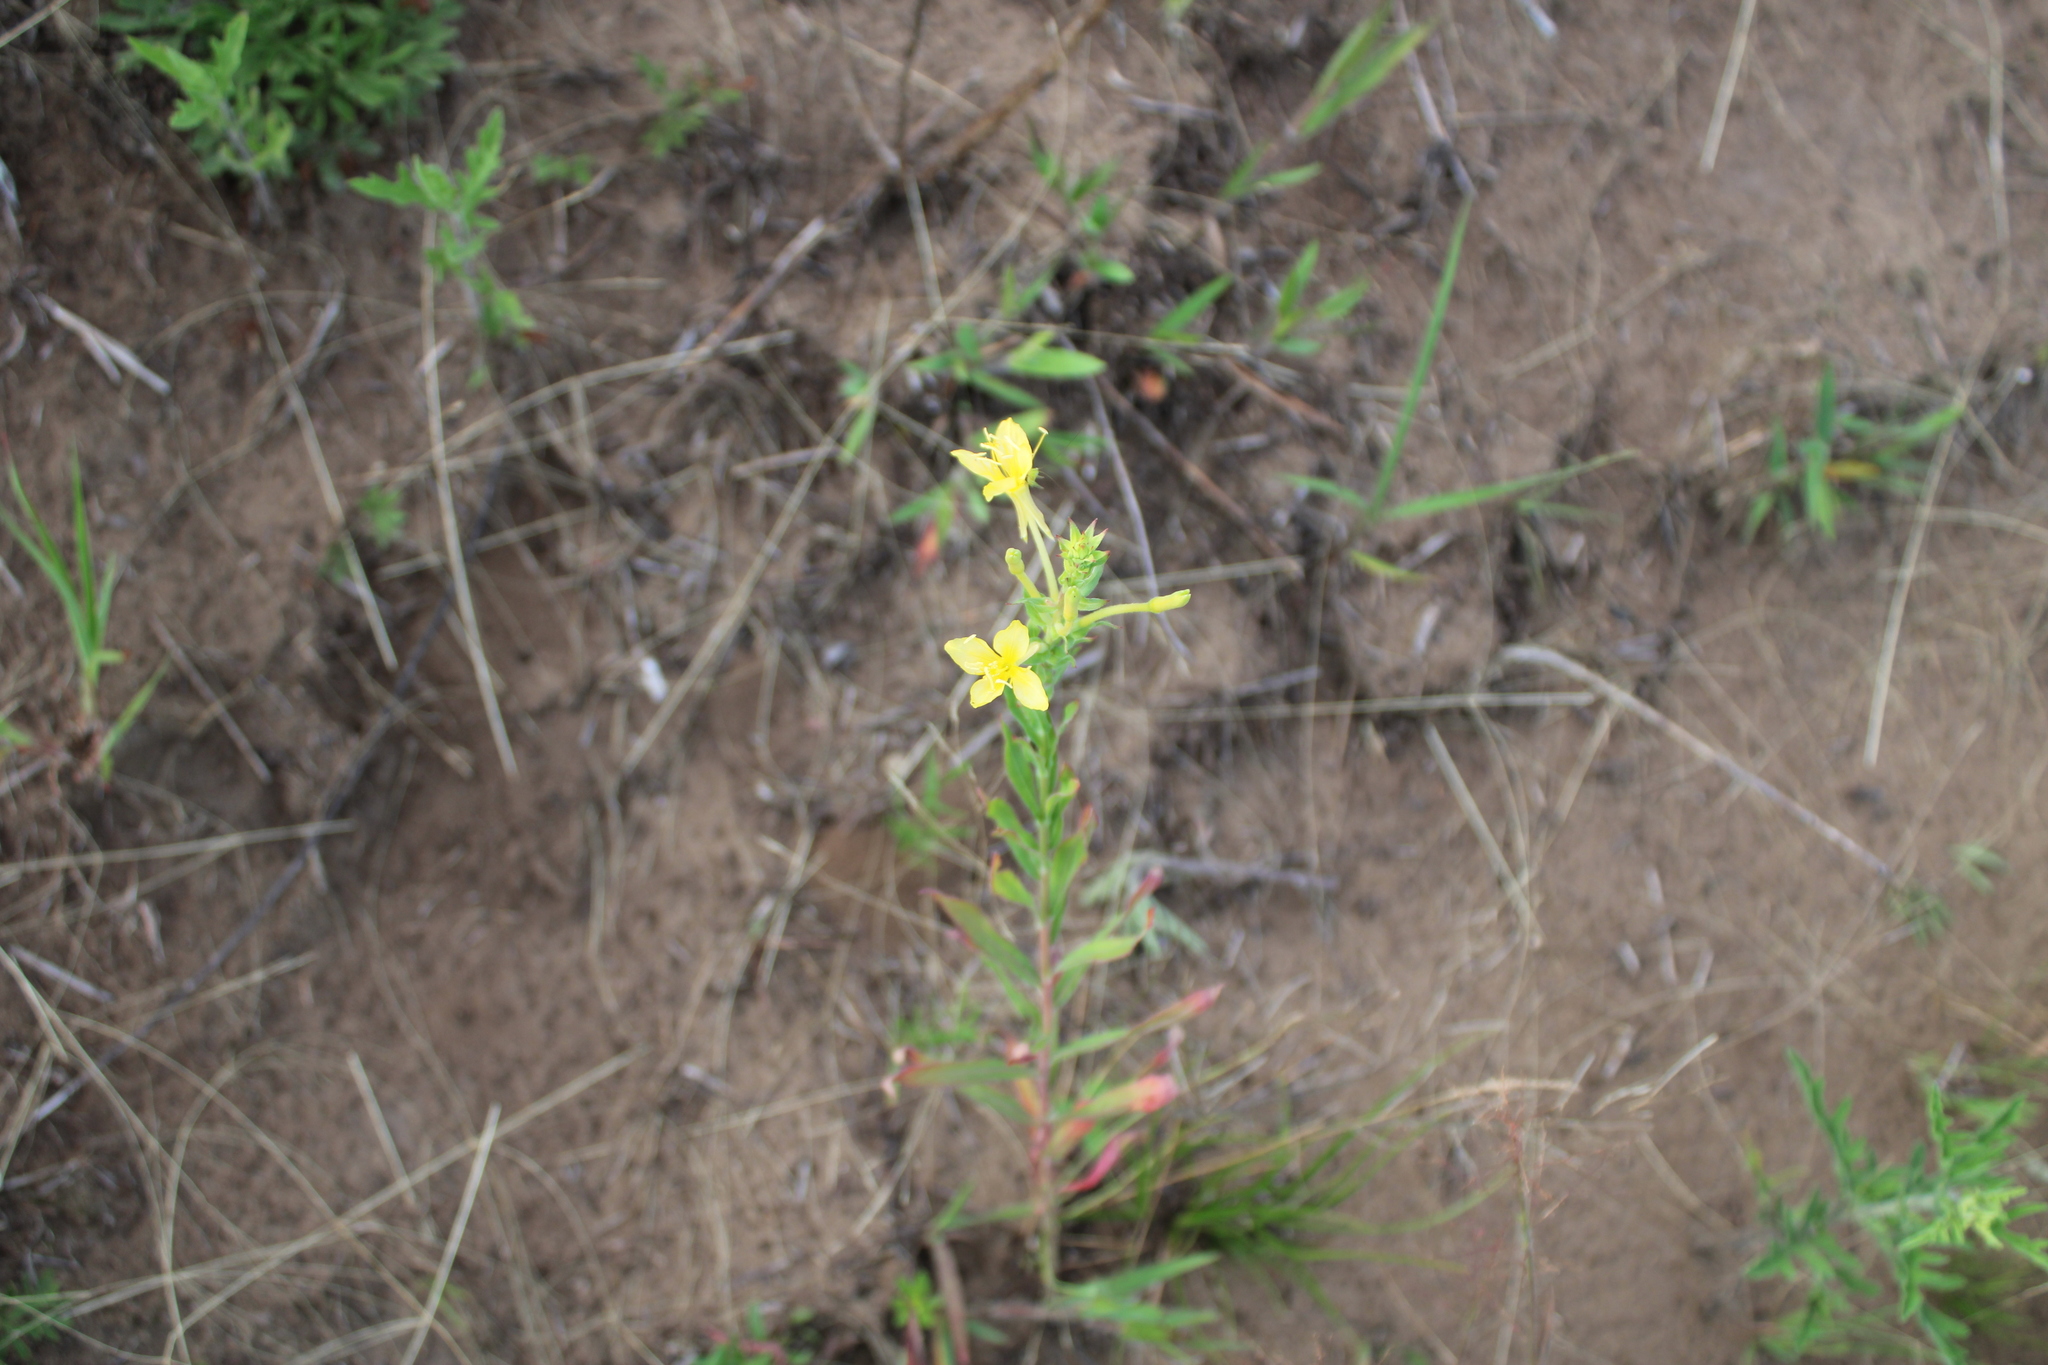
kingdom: Plantae
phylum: Tracheophyta
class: Magnoliopsida
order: Myrtales
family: Onagraceae
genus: Oenothera
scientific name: Oenothera clelandii
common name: Cleland's evening-primrose
